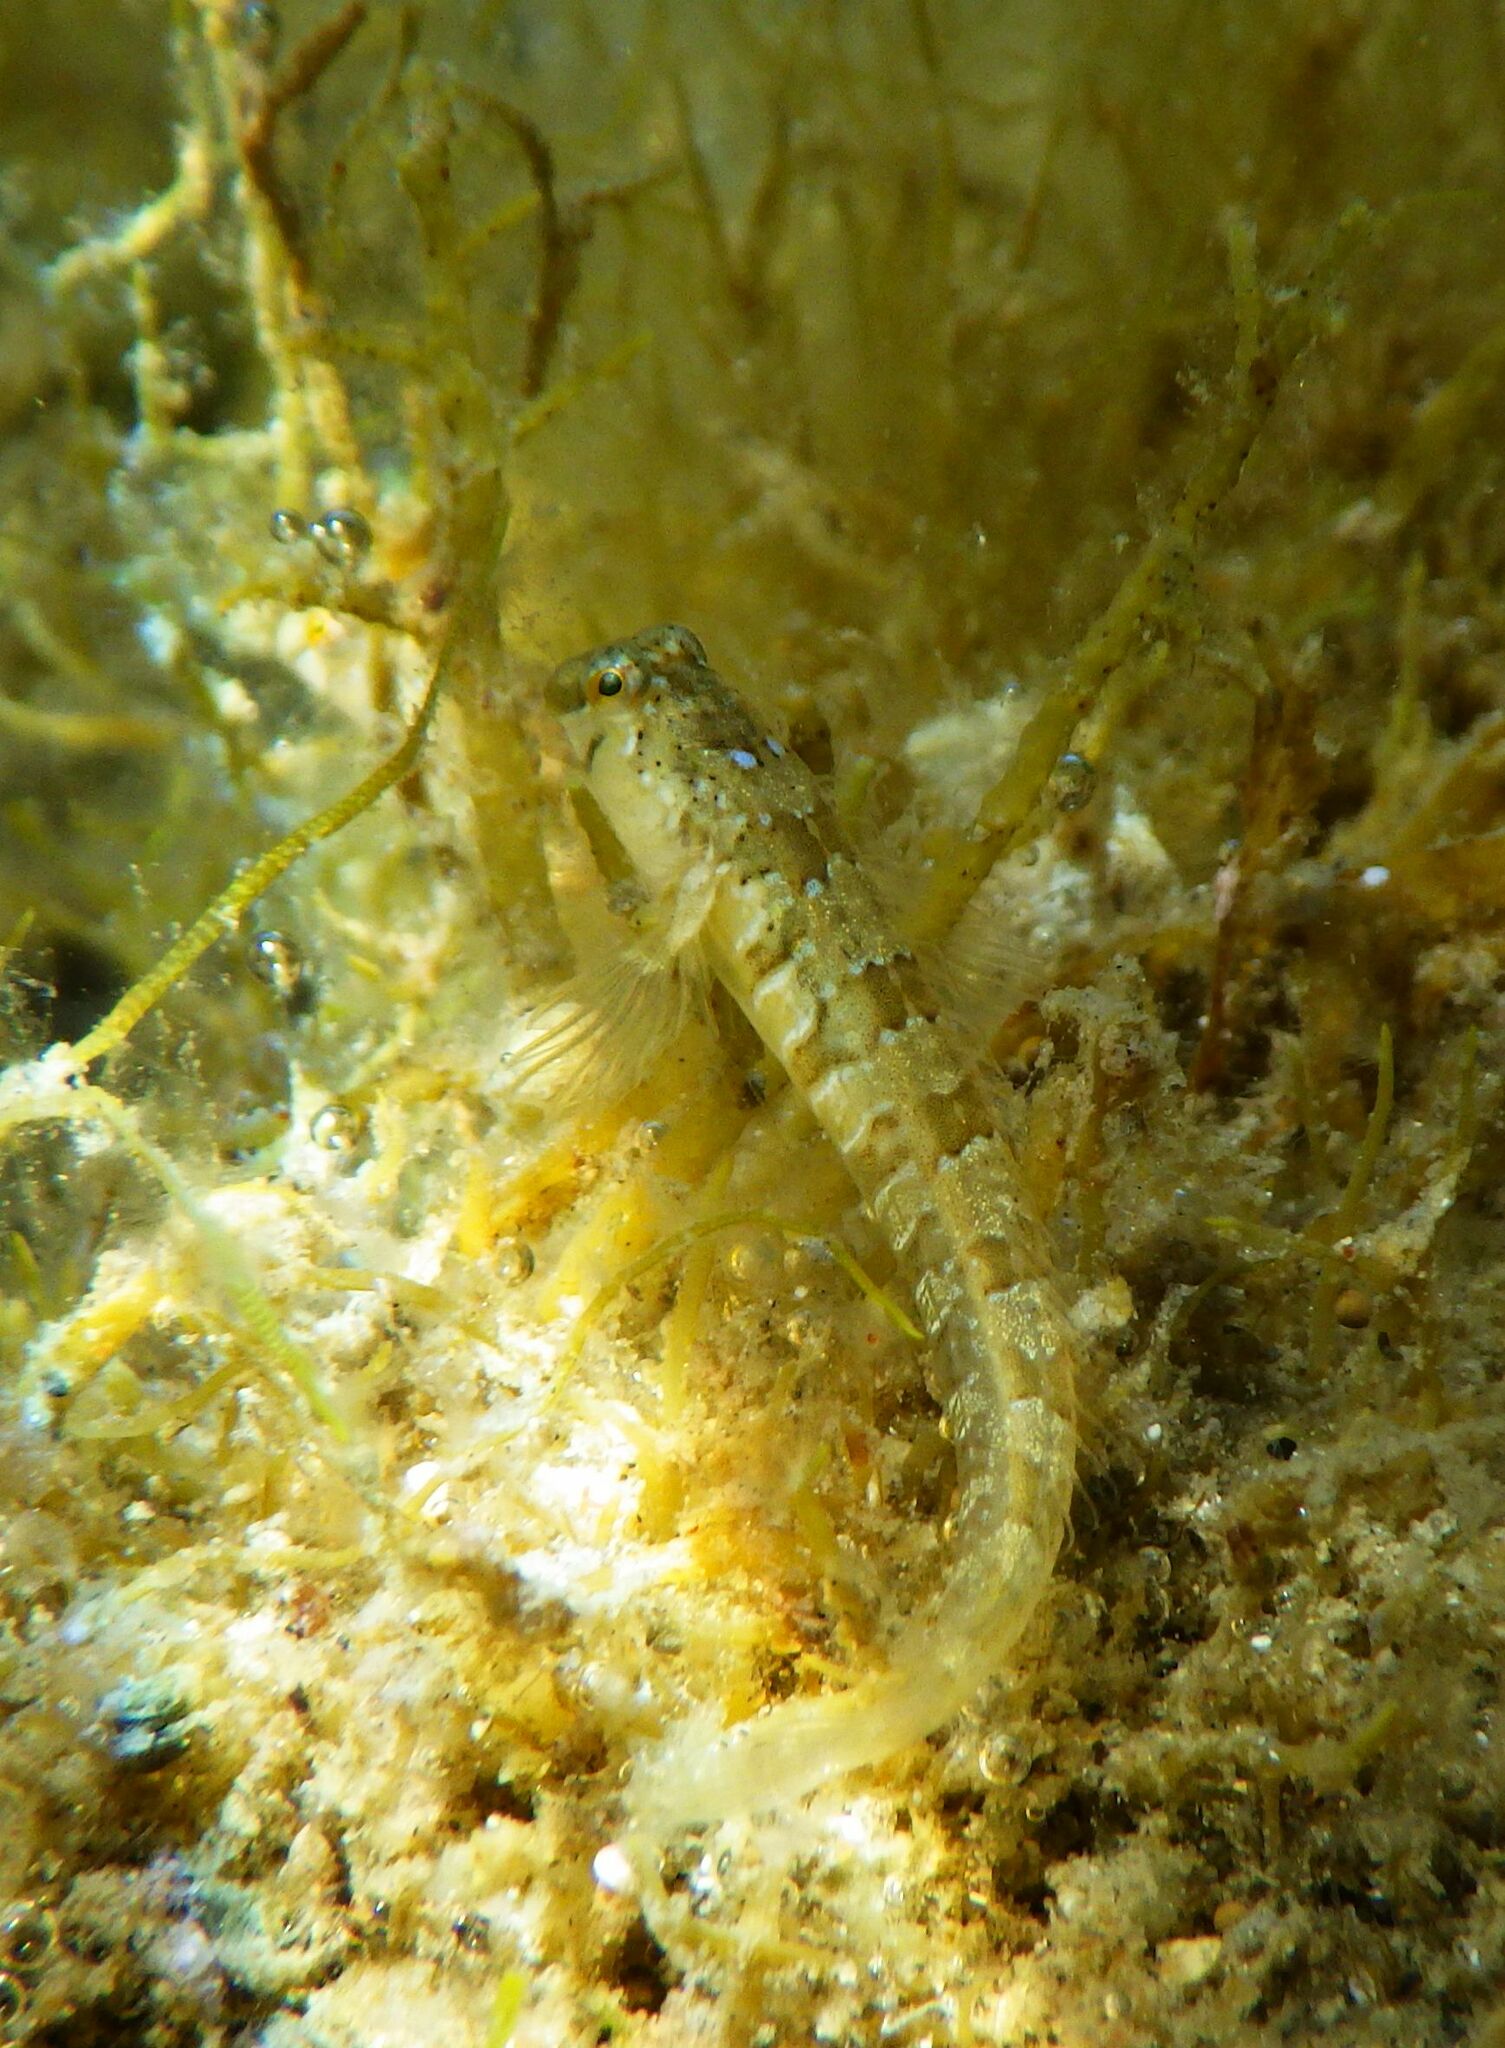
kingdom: Animalia
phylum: Chordata
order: Perciformes
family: Blenniidae
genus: Microlipophrys
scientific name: Microlipophrys dalmatinus
